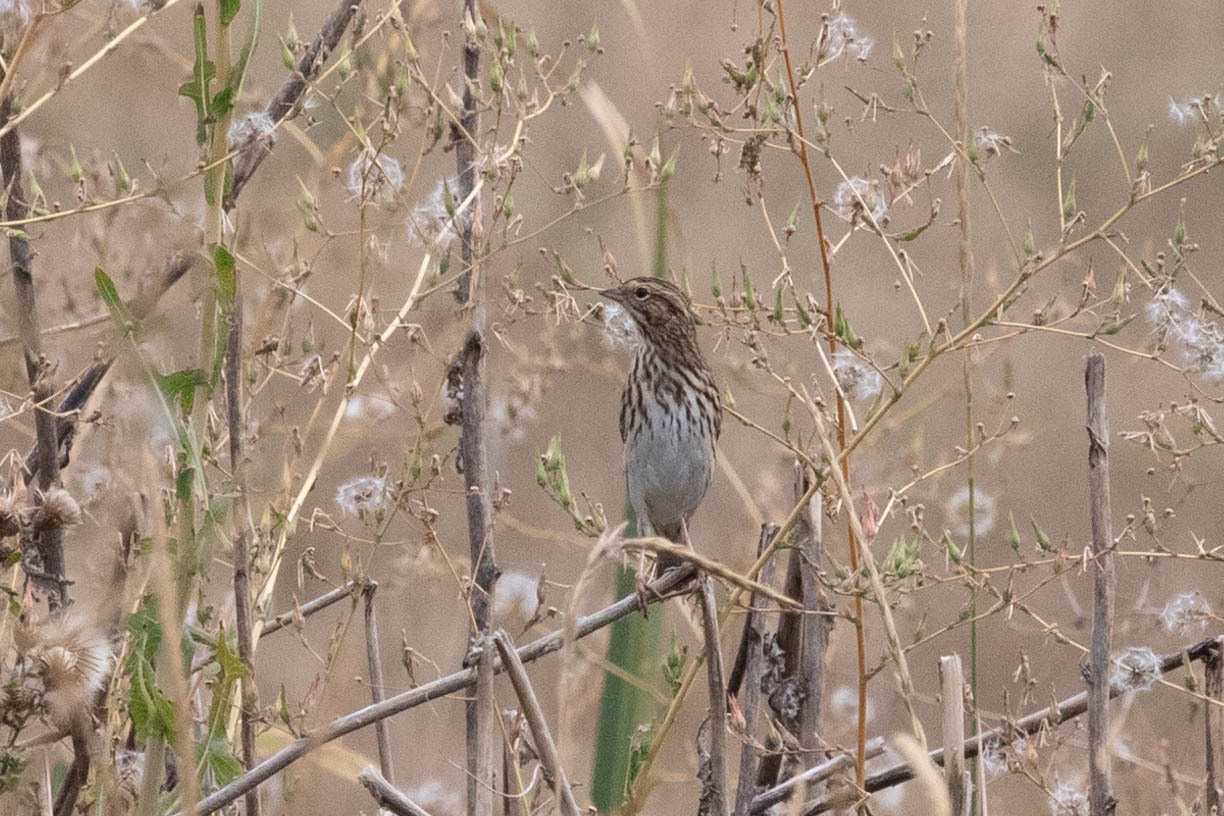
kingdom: Animalia
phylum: Chordata
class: Aves
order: Passeriformes
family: Passerellidae
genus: Passerculus
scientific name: Passerculus sandwichensis
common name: Savannah sparrow
